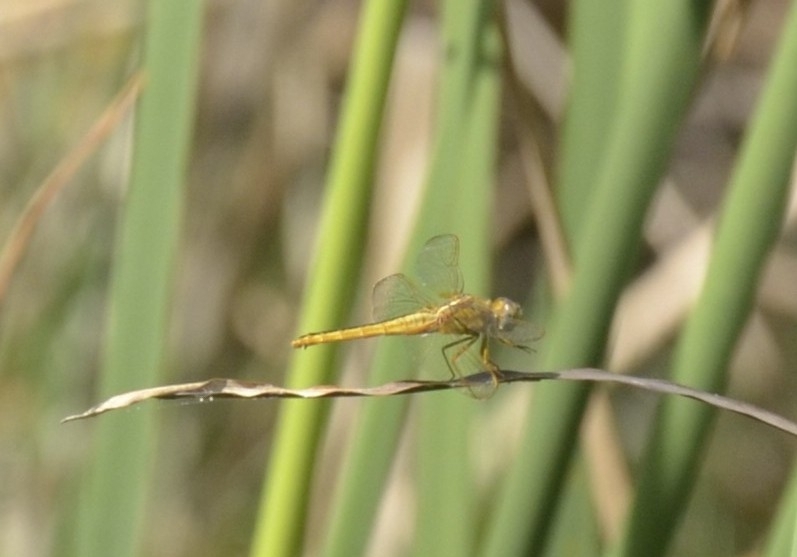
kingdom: Animalia
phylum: Arthropoda
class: Insecta
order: Odonata
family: Libellulidae
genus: Crocothemis
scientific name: Crocothemis servilia
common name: Scarlet skimmer
